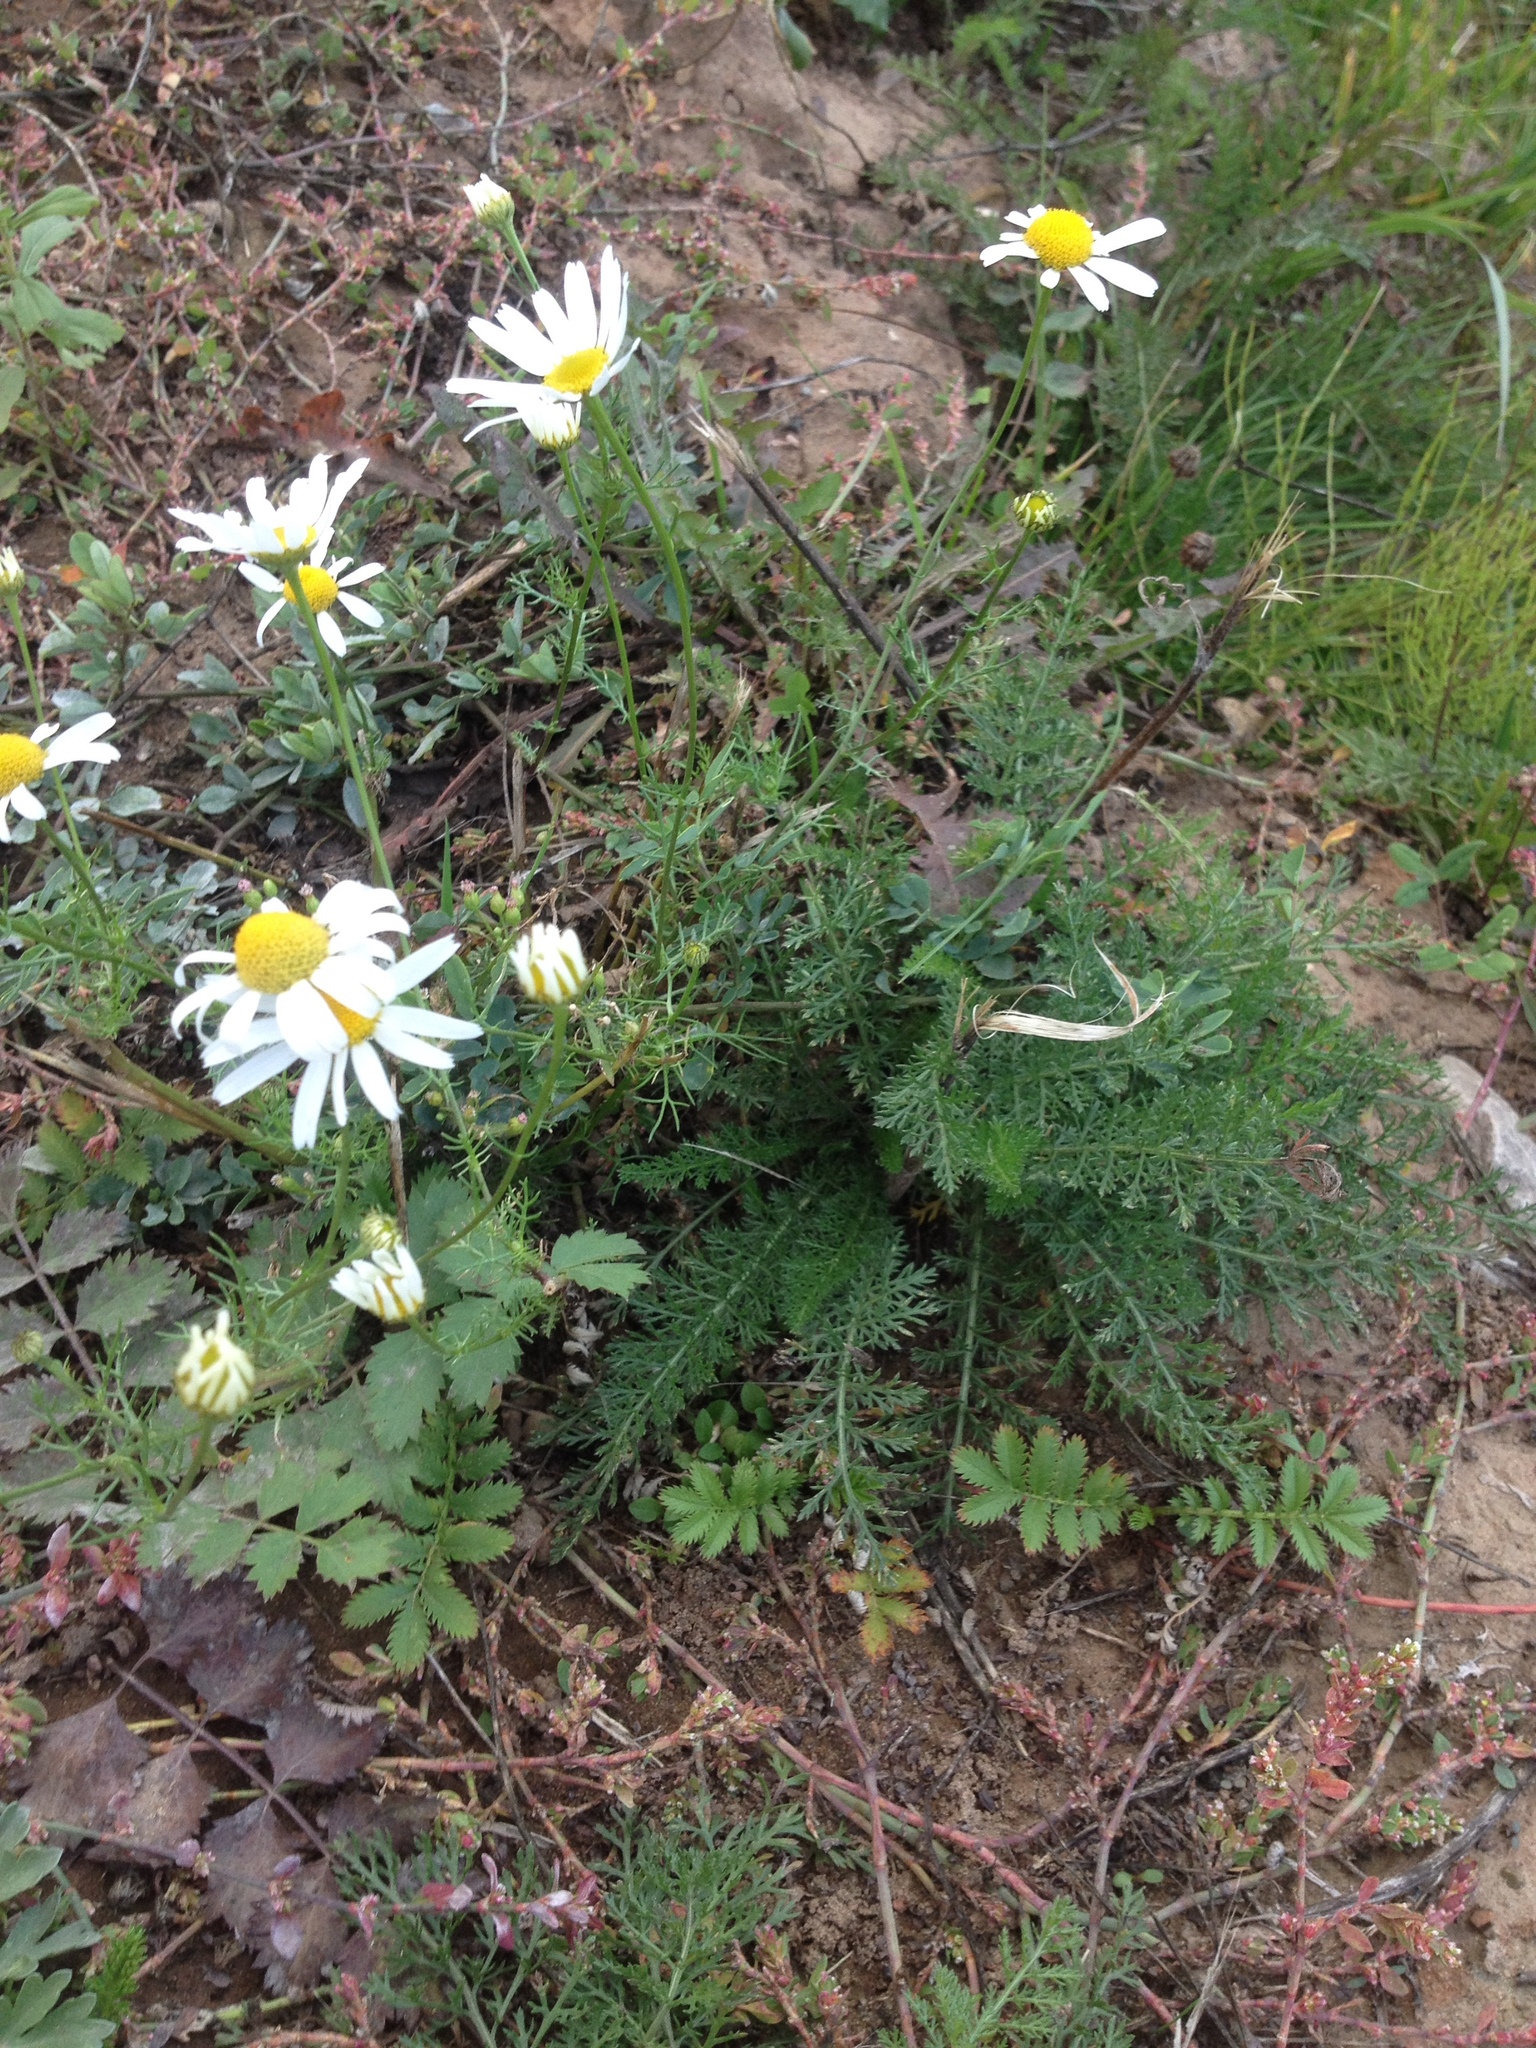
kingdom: Plantae
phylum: Tracheophyta
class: Magnoliopsida
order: Asterales
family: Asteraceae
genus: Tripleurospermum
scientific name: Tripleurospermum inodorum
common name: Scentless mayweed
